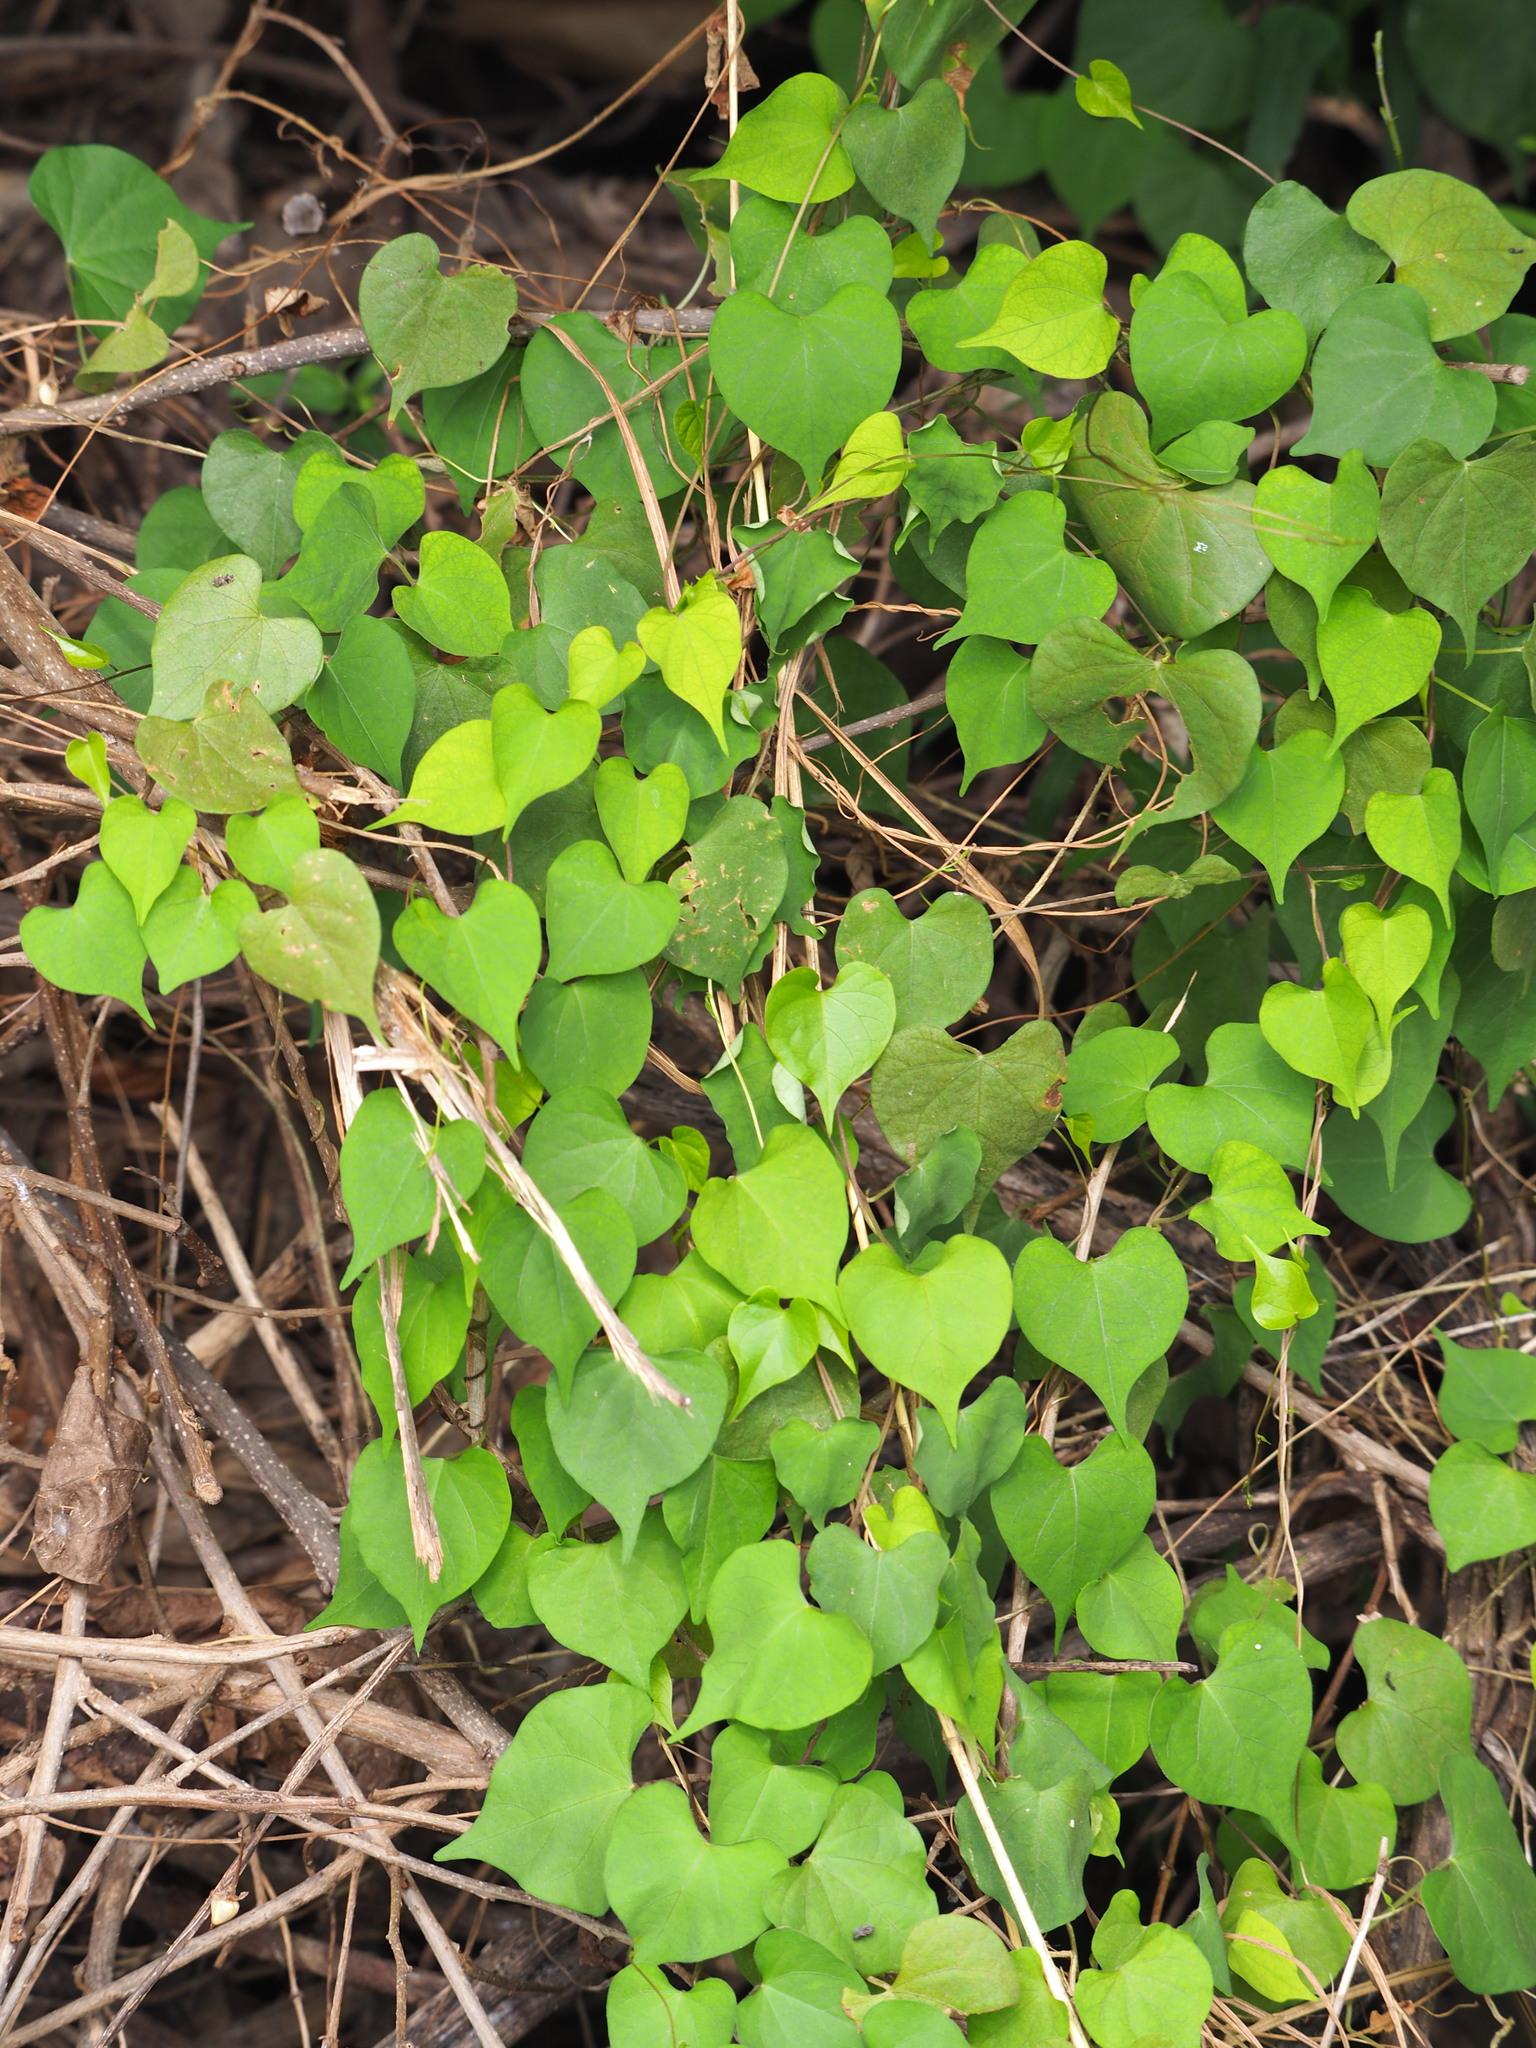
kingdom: Plantae
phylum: Tracheophyta
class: Magnoliopsida
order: Solanales
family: Convolvulaceae
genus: Ipomoea
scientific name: Ipomoea obscura
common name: Obscure morning-glory
